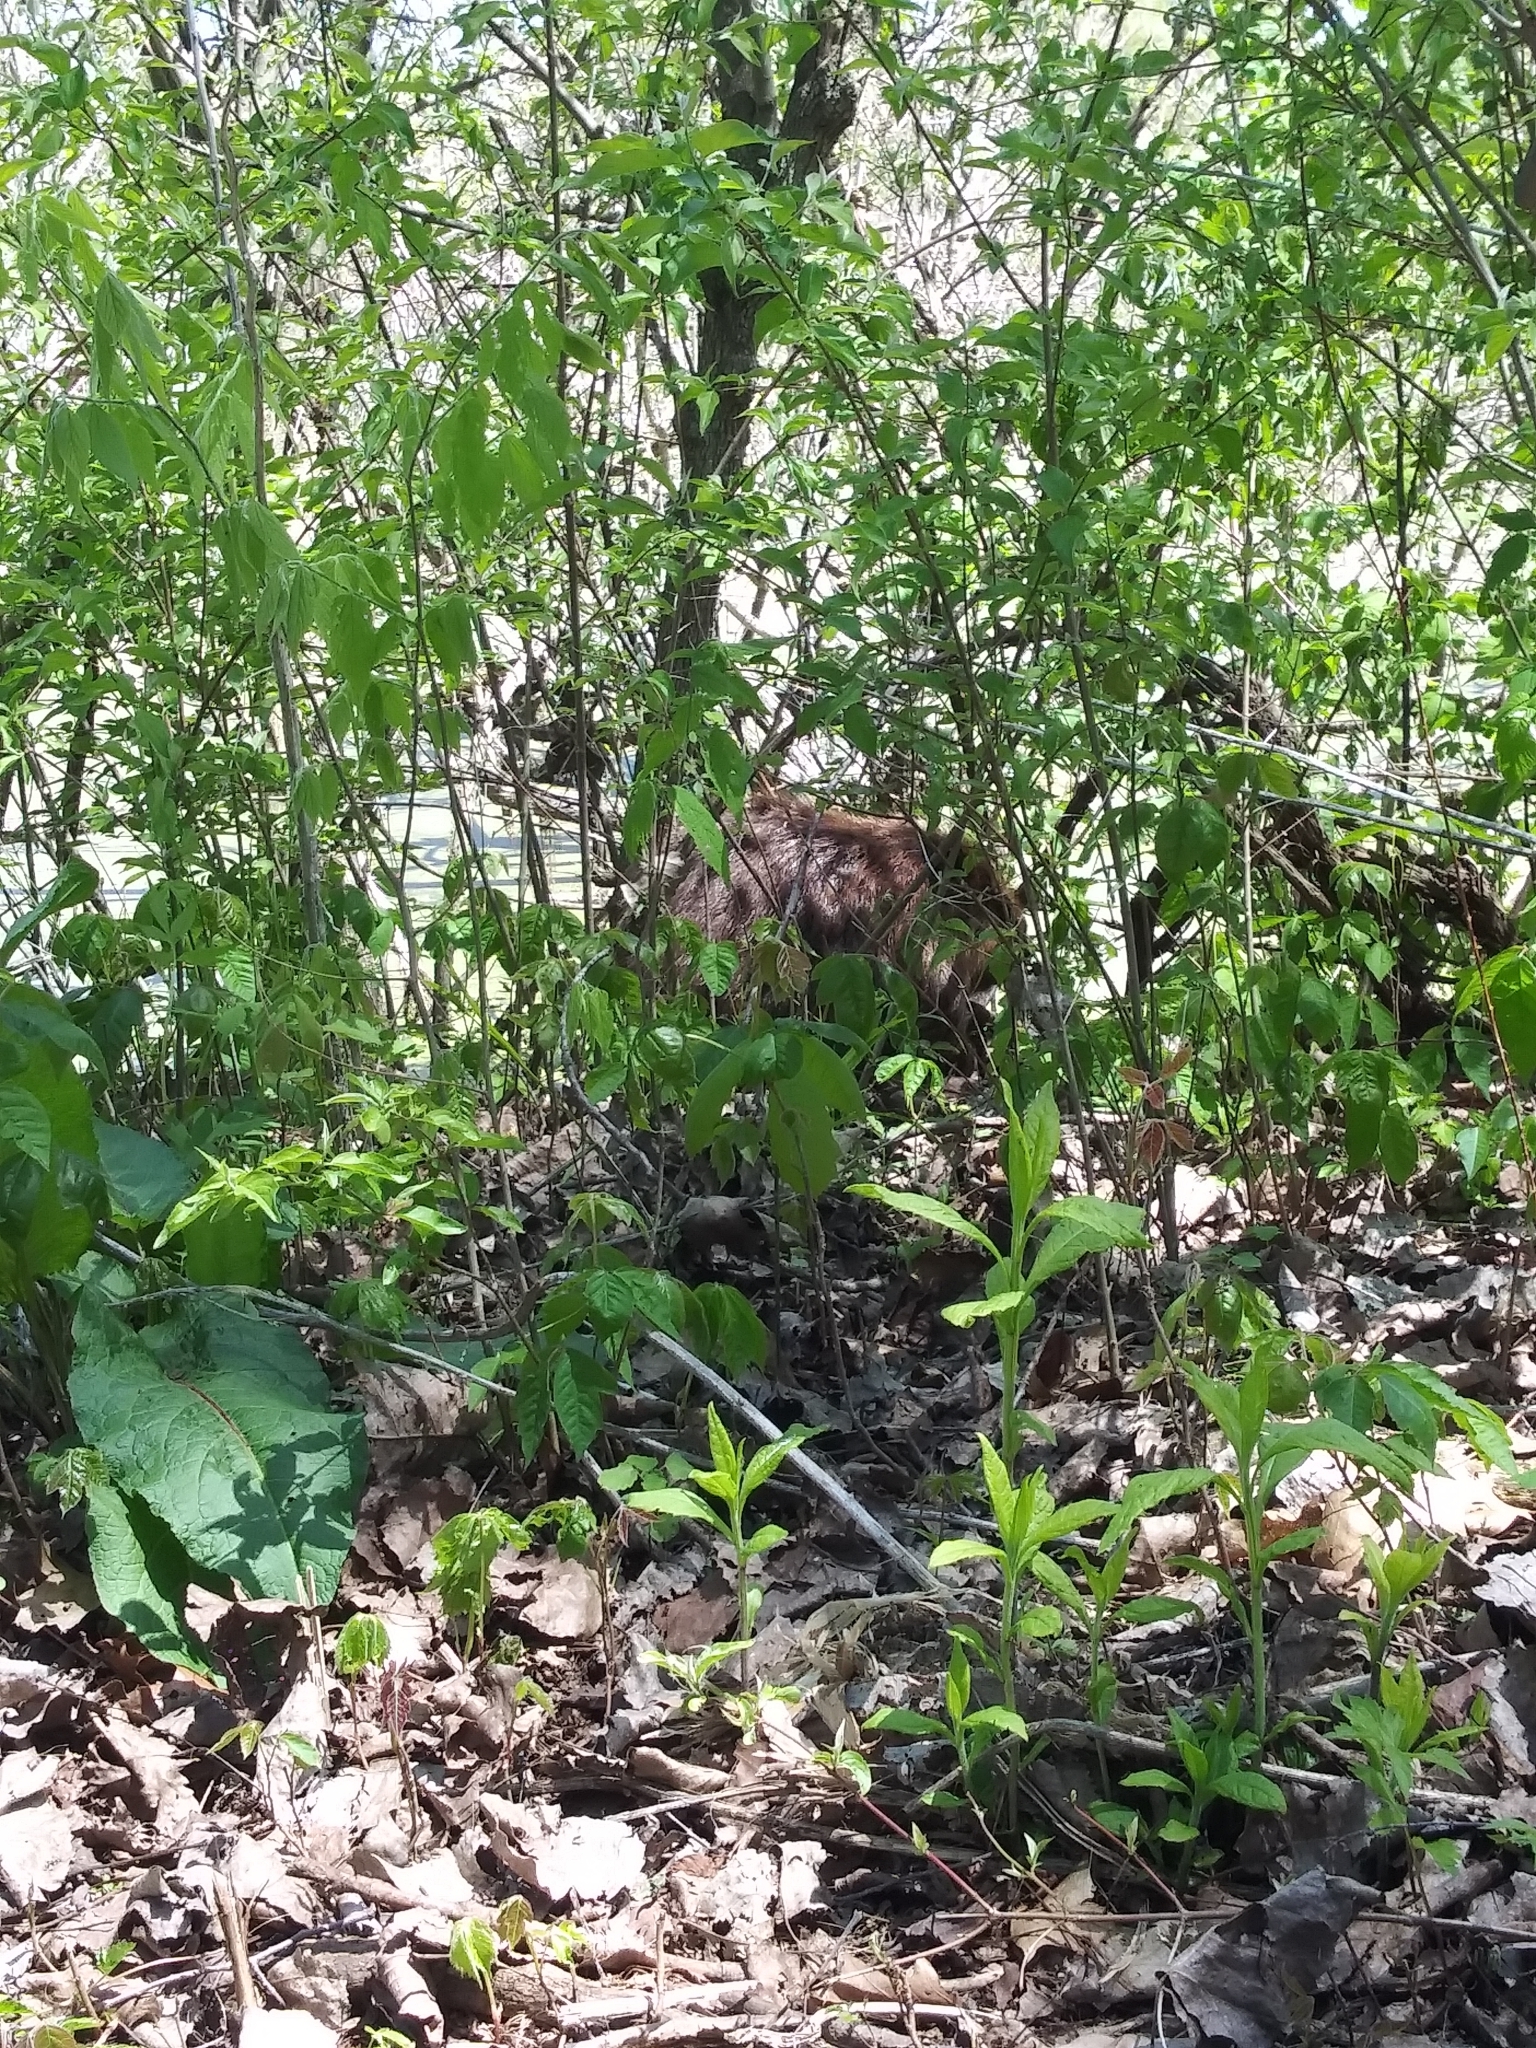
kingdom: Animalia
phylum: Chordata
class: Mammalia
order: Rodentia
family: Castoridae
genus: Castor
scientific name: Castor canadensis
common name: American beaver
